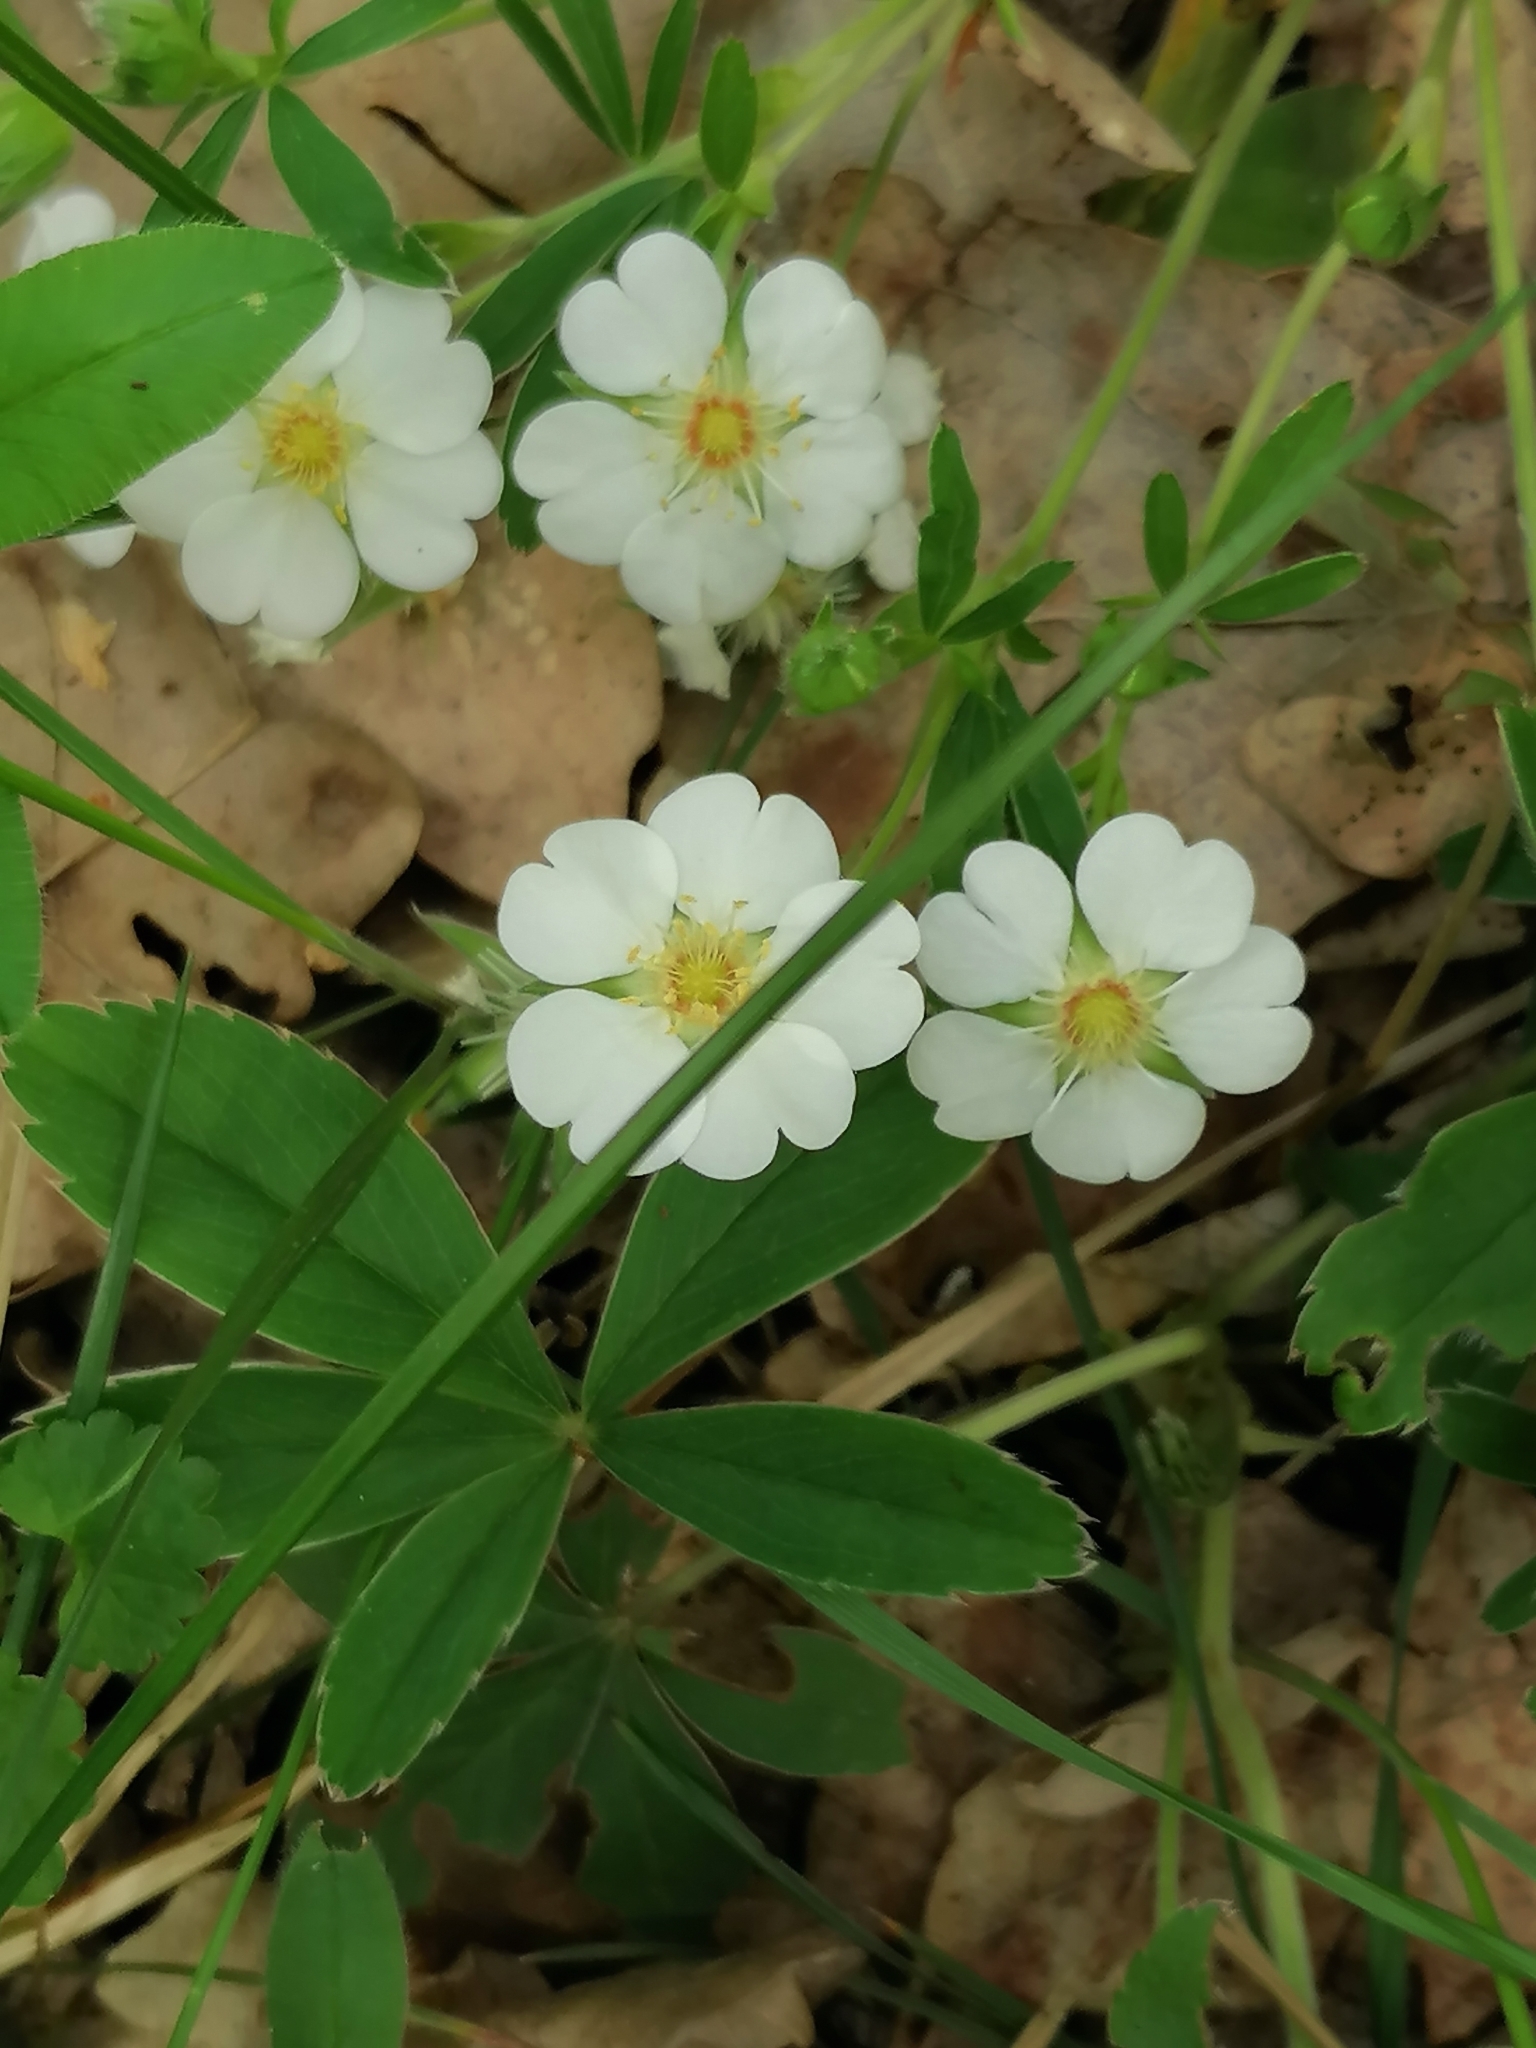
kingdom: Plantae
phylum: Tracheophyta
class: Magnoliopsida
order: Rosales
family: Rosaceae
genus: Potentilla
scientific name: Potentilla alba
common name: White cinquefoil
